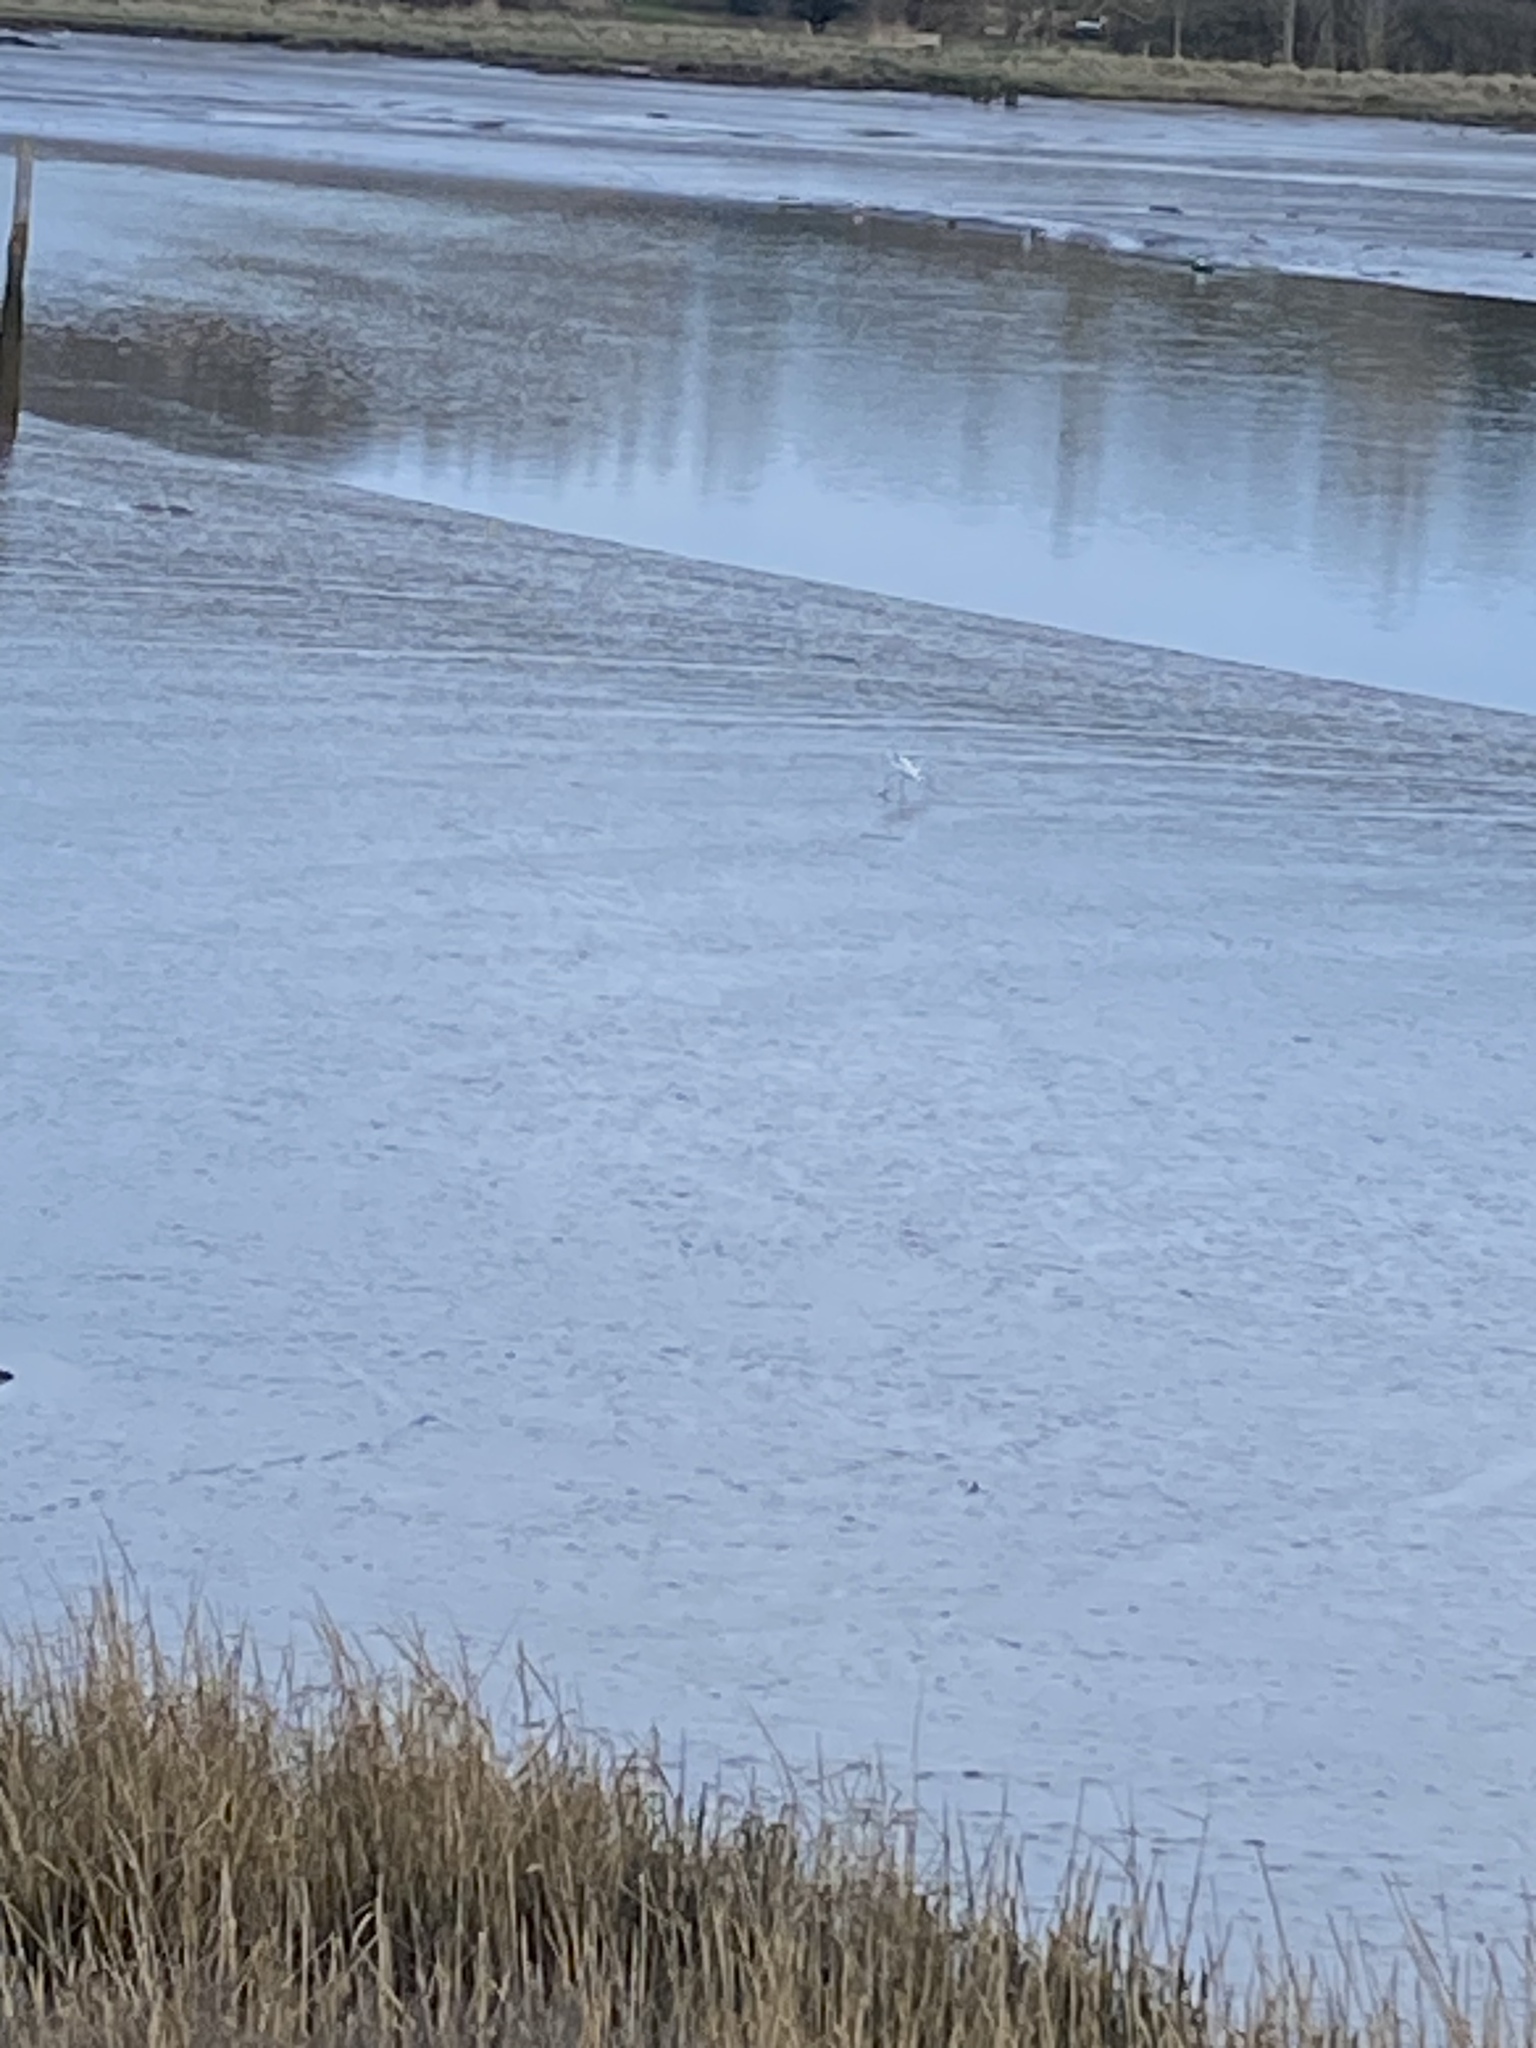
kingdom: Animalia
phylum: Chordata
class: Aves
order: Charadriiformes
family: Recurvirostridae
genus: Recurvirostra
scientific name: Recurvirostra avosetta
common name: Pied avocet
